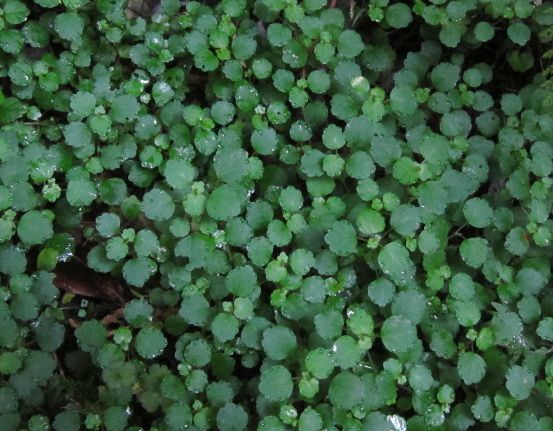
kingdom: Plantae
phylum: Tracheophyta
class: Magnoliopsida
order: Rosales
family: Urticaceae
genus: Australina
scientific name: Australina pusilla
